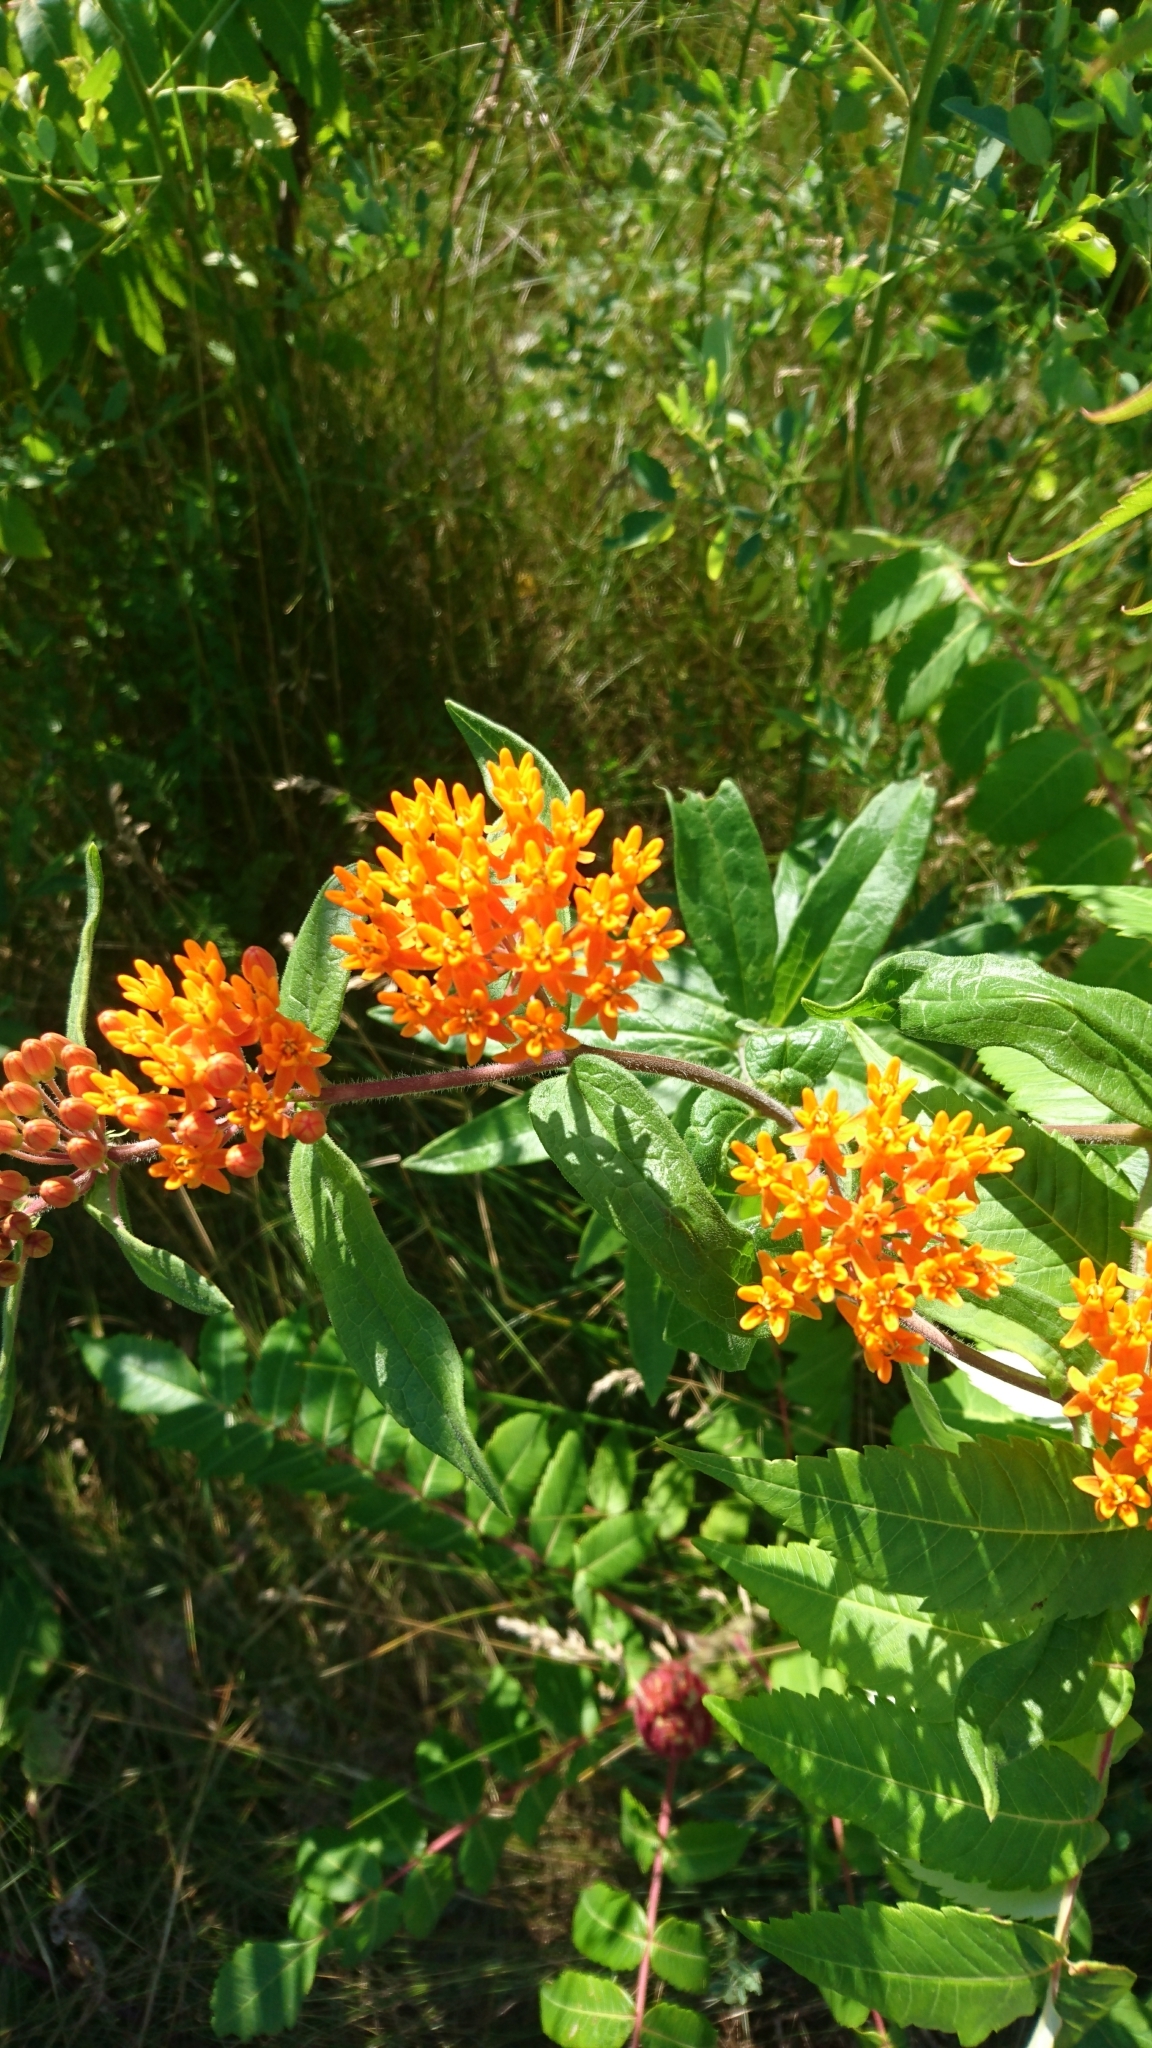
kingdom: Plantae
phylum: Tracheophyta
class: Magnoliopsida
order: Gentianales
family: Apocynaceae
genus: Asclepias
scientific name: Asclepias tuberosa
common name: Butterfly milkweed
